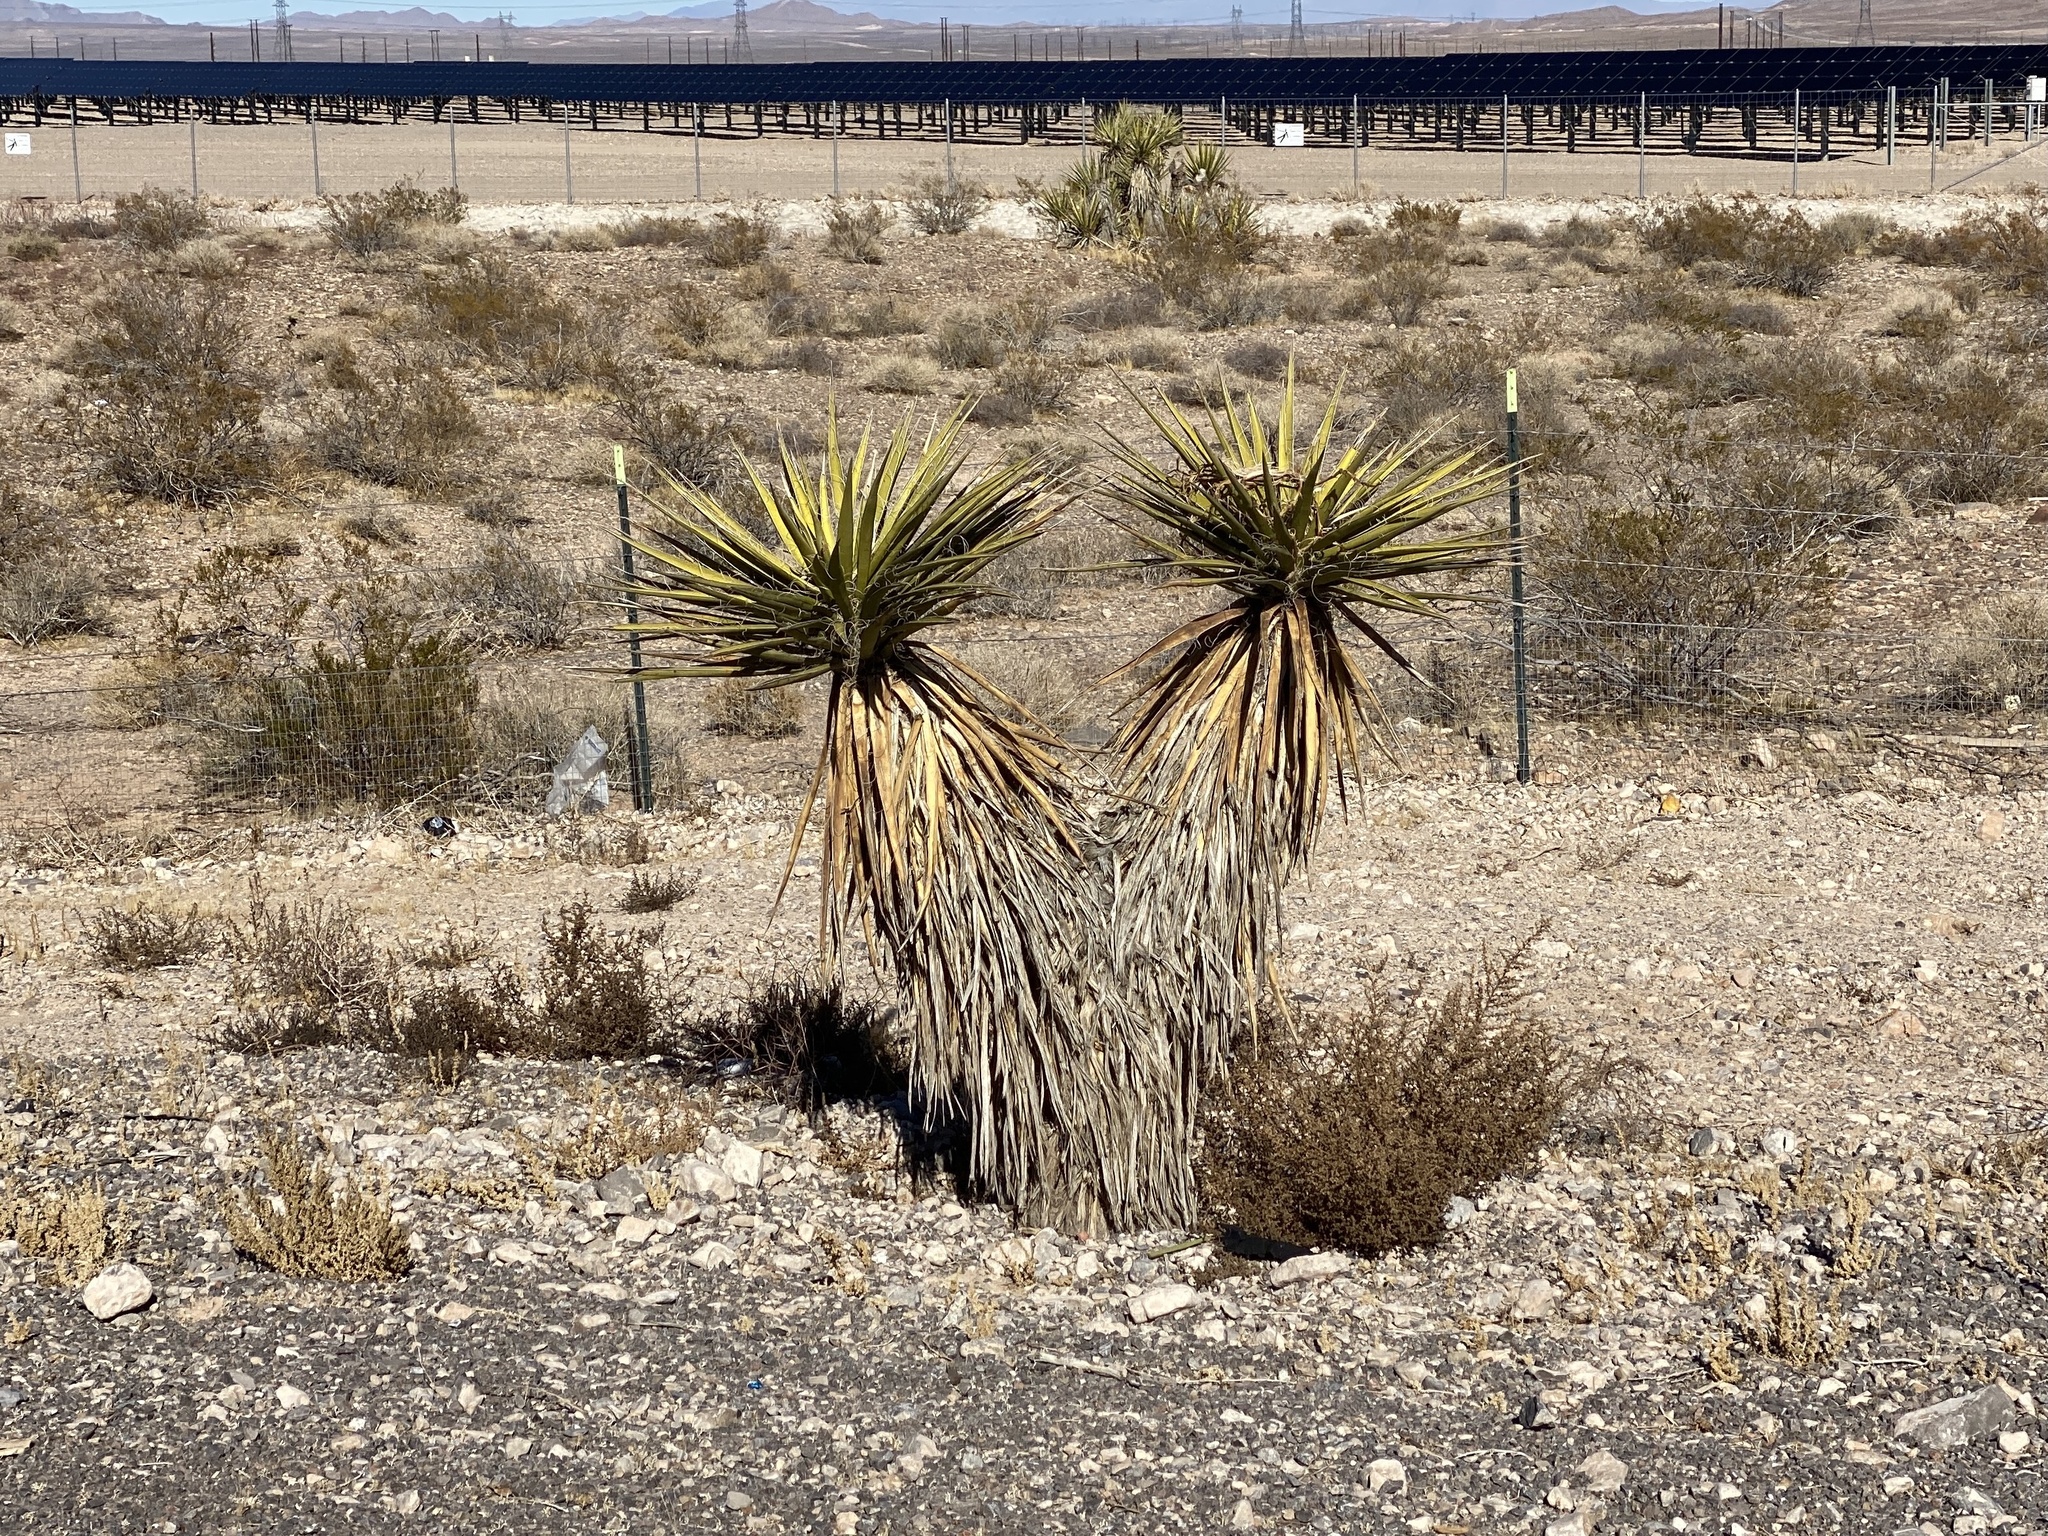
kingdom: Plantae
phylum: Tracheophyta
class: Liliopsida
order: Asparagales
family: Asparagaceae
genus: Yucca
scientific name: Yucca schidigera
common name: Mojave yucca
